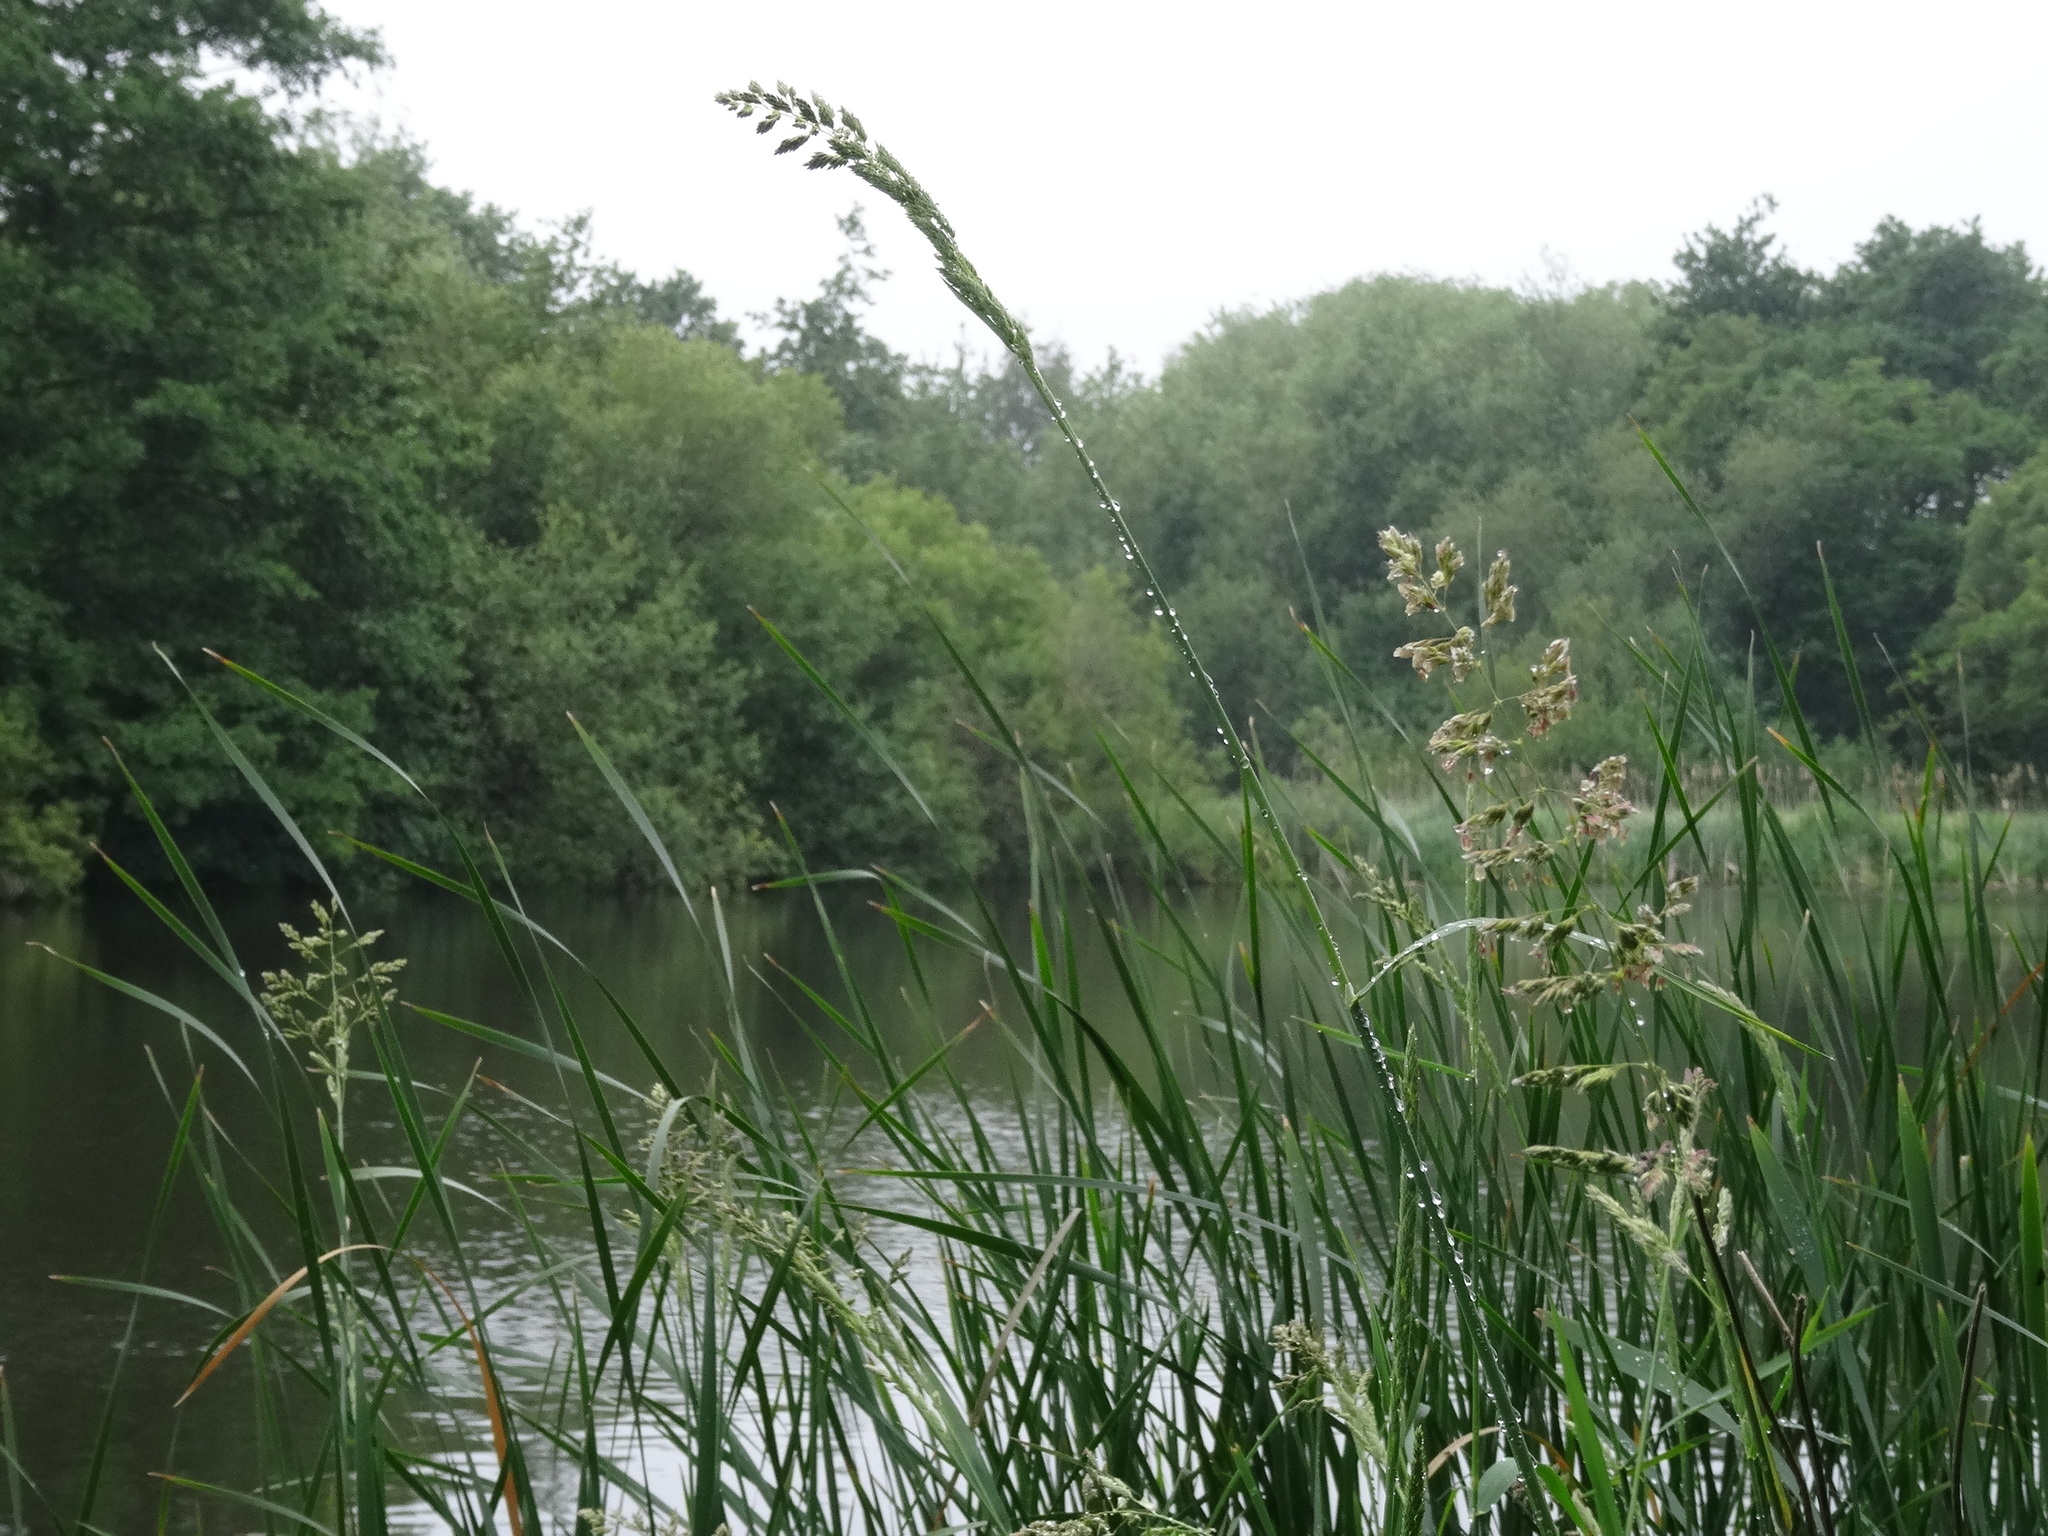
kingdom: Plantae
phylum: Tracheophyta
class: Liliopsida
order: Poales
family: Poaceae
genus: Phalaris
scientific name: Phalaris arundinacea
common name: Reed canary-grass
